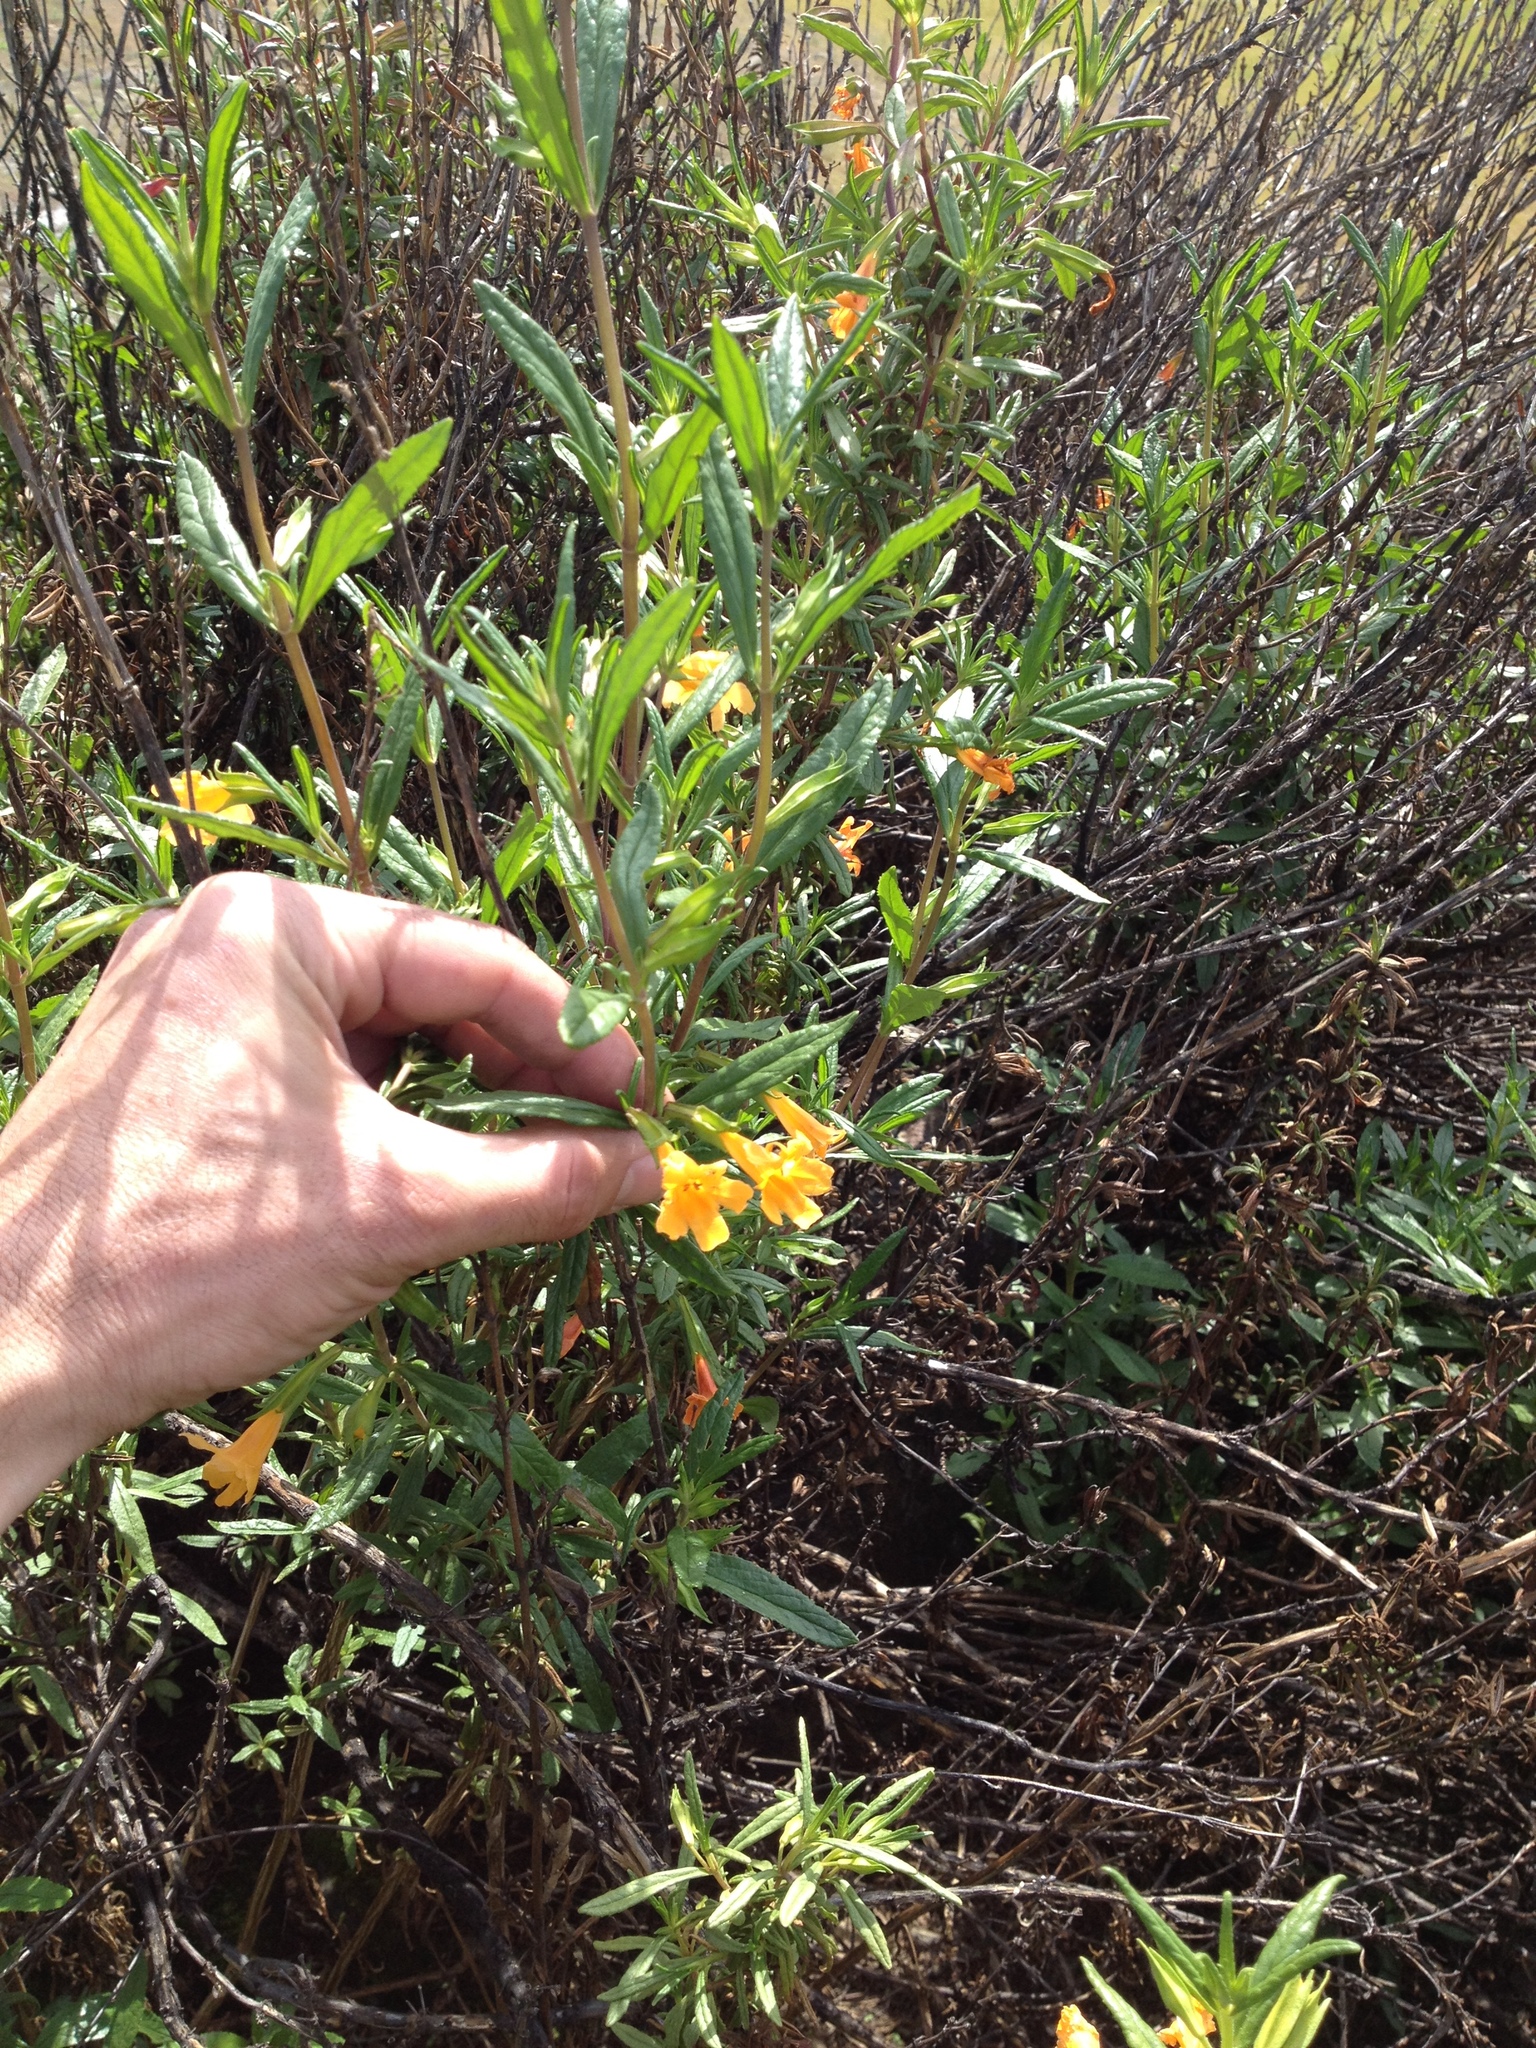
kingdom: Plantae
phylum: Tracheophyta
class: Magnoliopsida
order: Lamiales
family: Phrymaceae
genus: Diplacus
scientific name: Diplacus aurantiacus
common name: Bush monkey-flower
